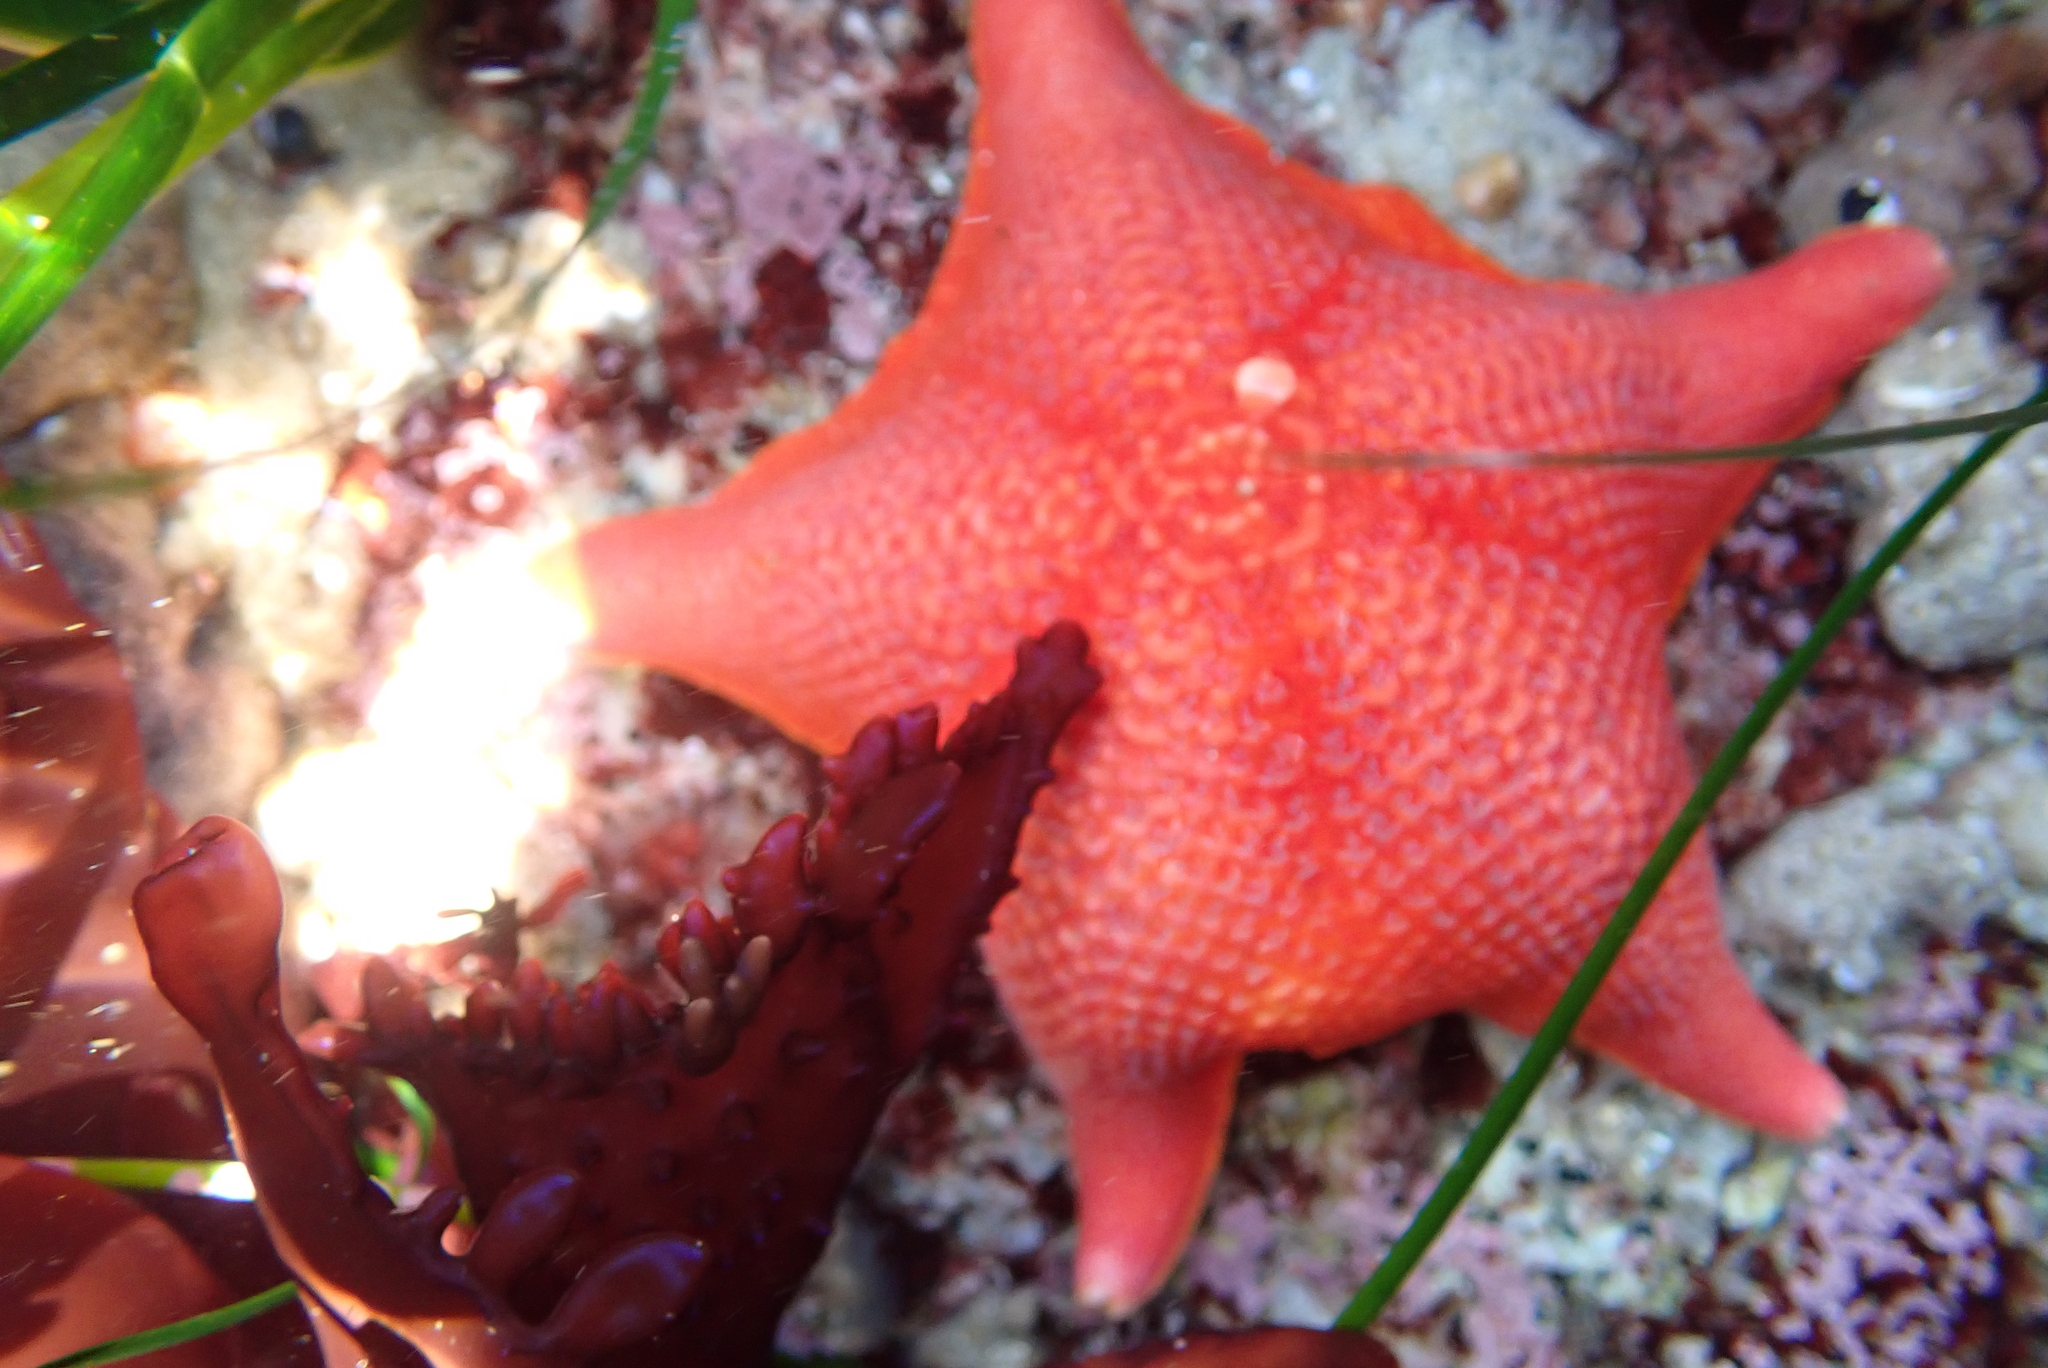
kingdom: Animalia
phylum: Echinodermata
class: Asteroidea
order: Valvatida
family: Asterinidae
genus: Patiria
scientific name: Patiria miniata
